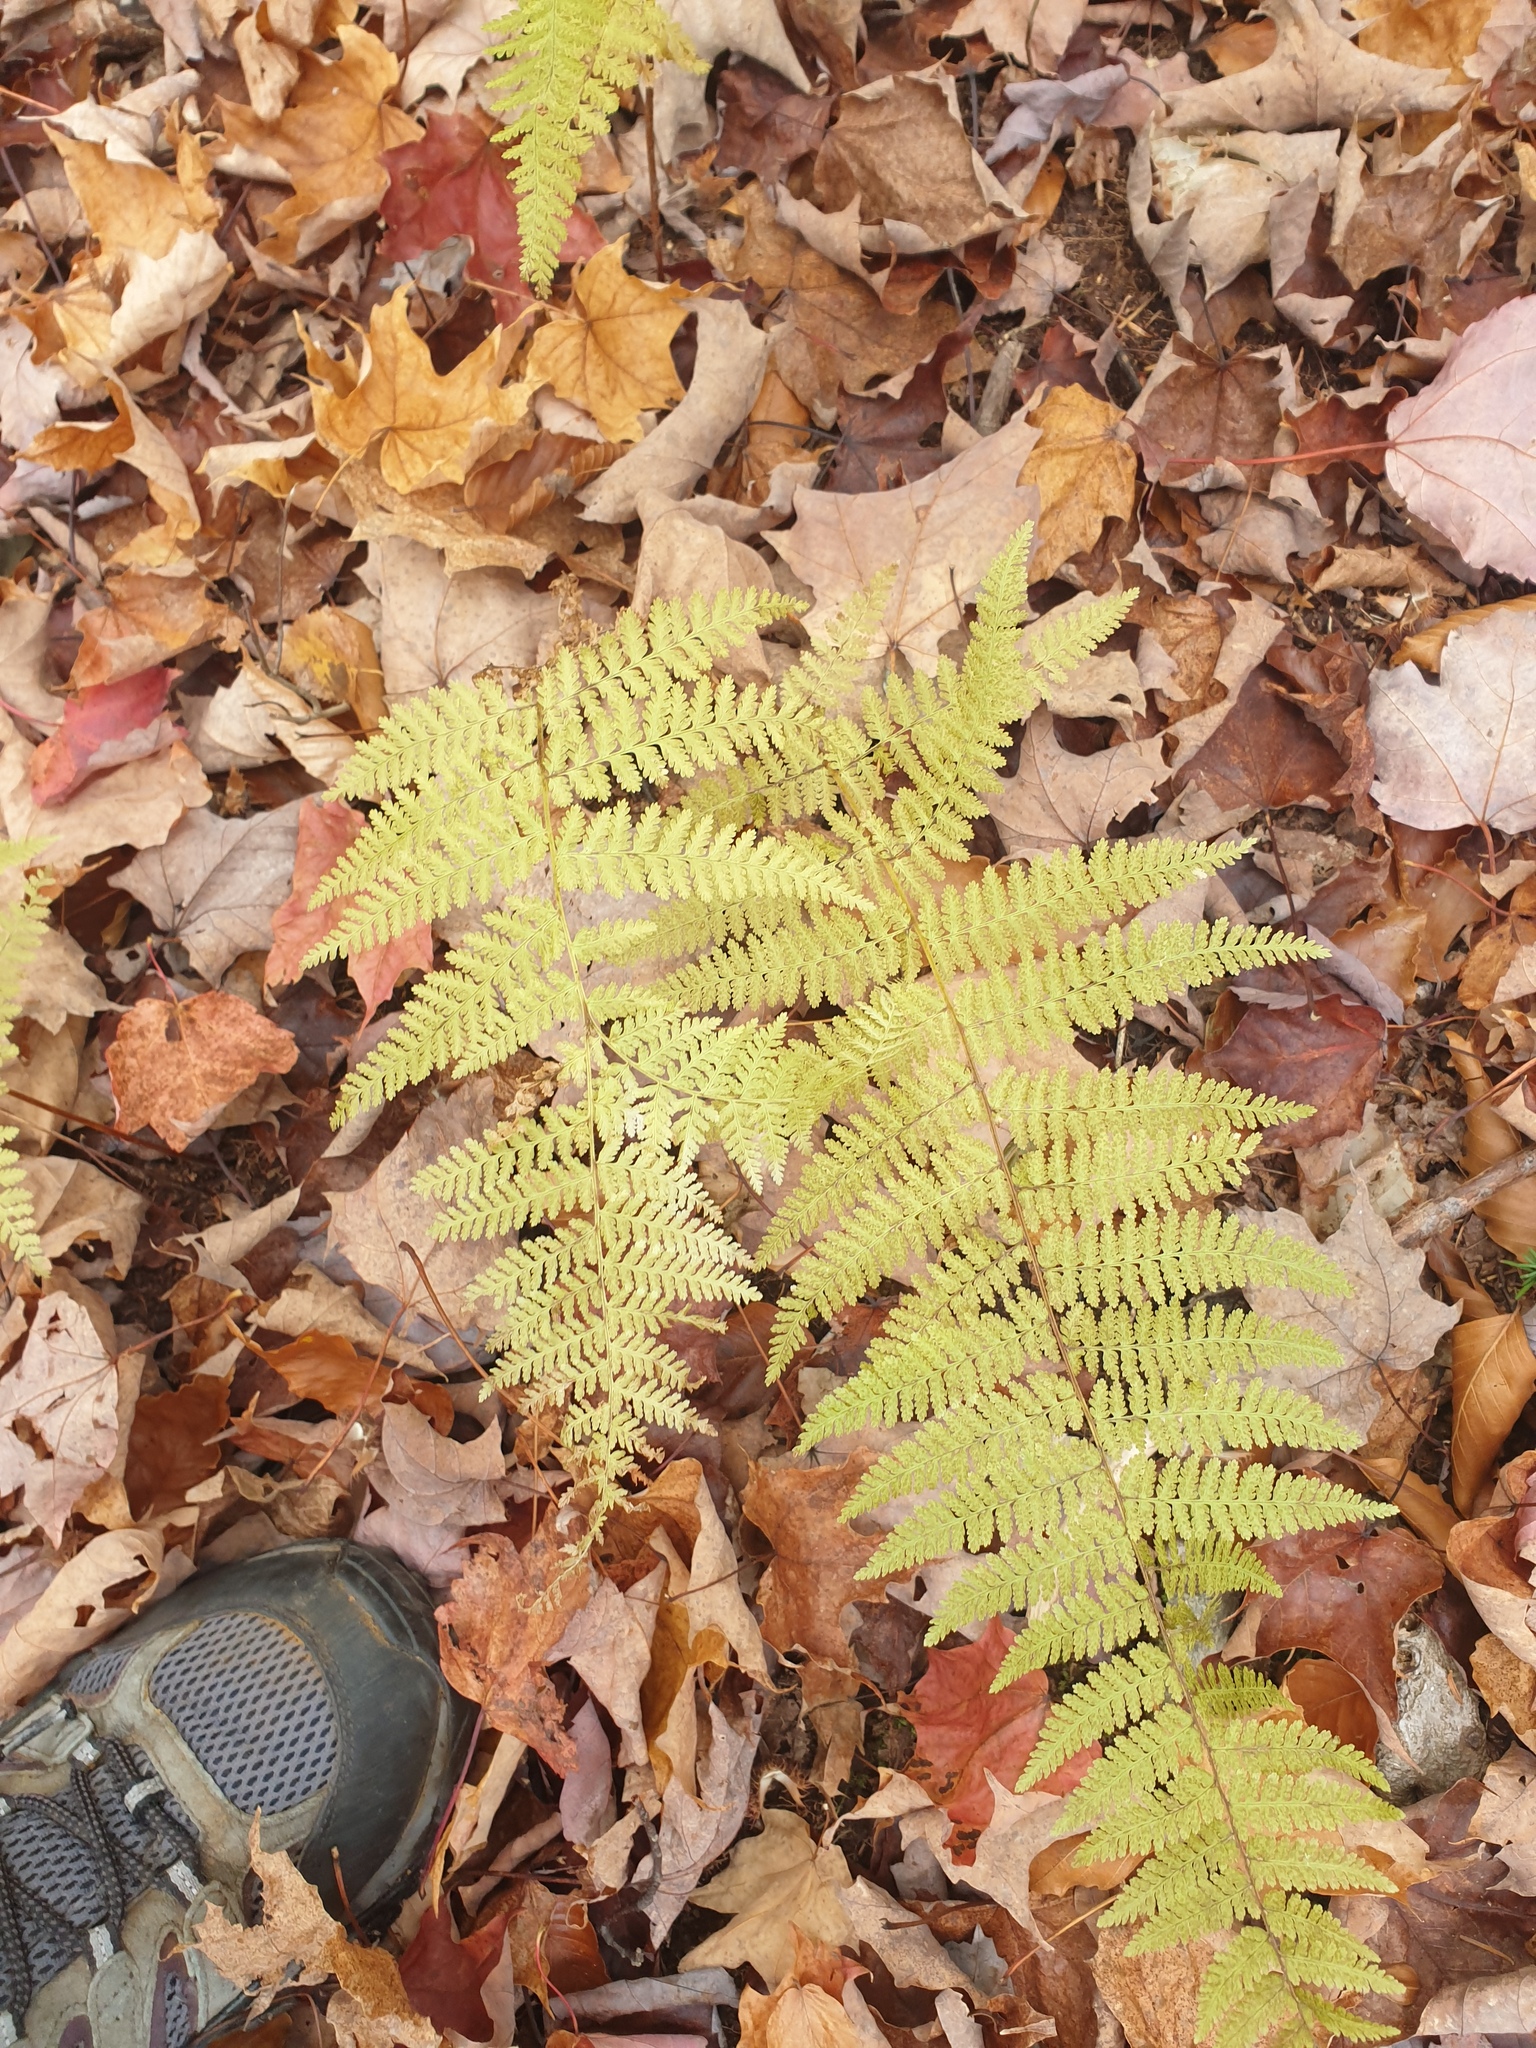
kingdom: Plantae
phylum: Tracheophyta
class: Polypodiopsida
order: Polypodiales
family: Dennstaedtiaceae
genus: Sitobolium
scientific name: Sitobolium punctilobum
